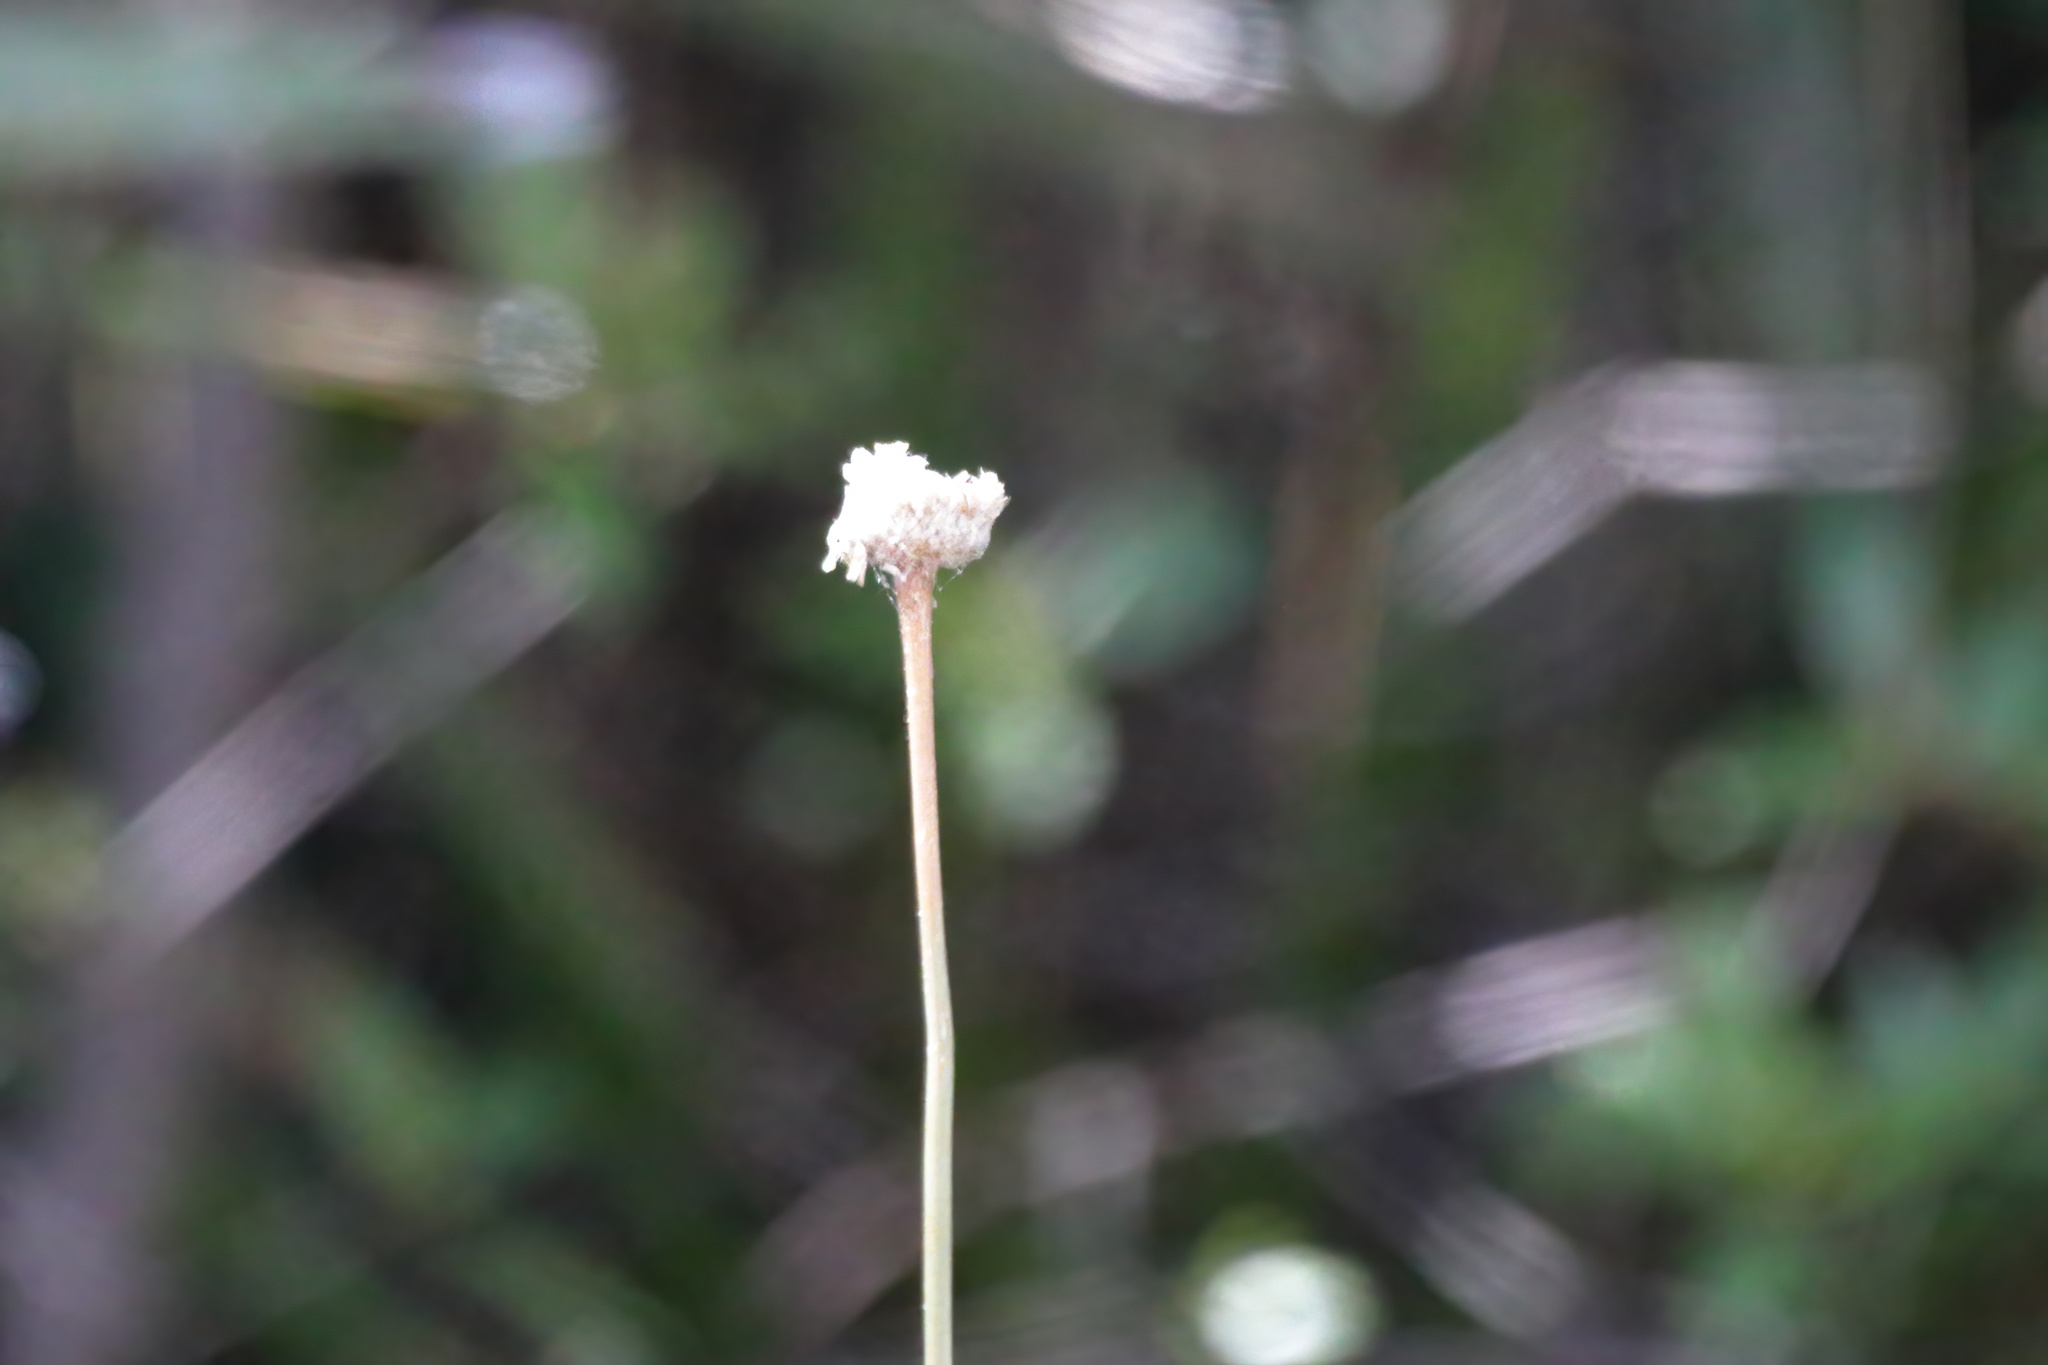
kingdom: Plantae
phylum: Tracheophyta
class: Liliopsida
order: Poales
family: Eriocaulaceae
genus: Eriocaulon
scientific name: Eriocaulon decangulare
